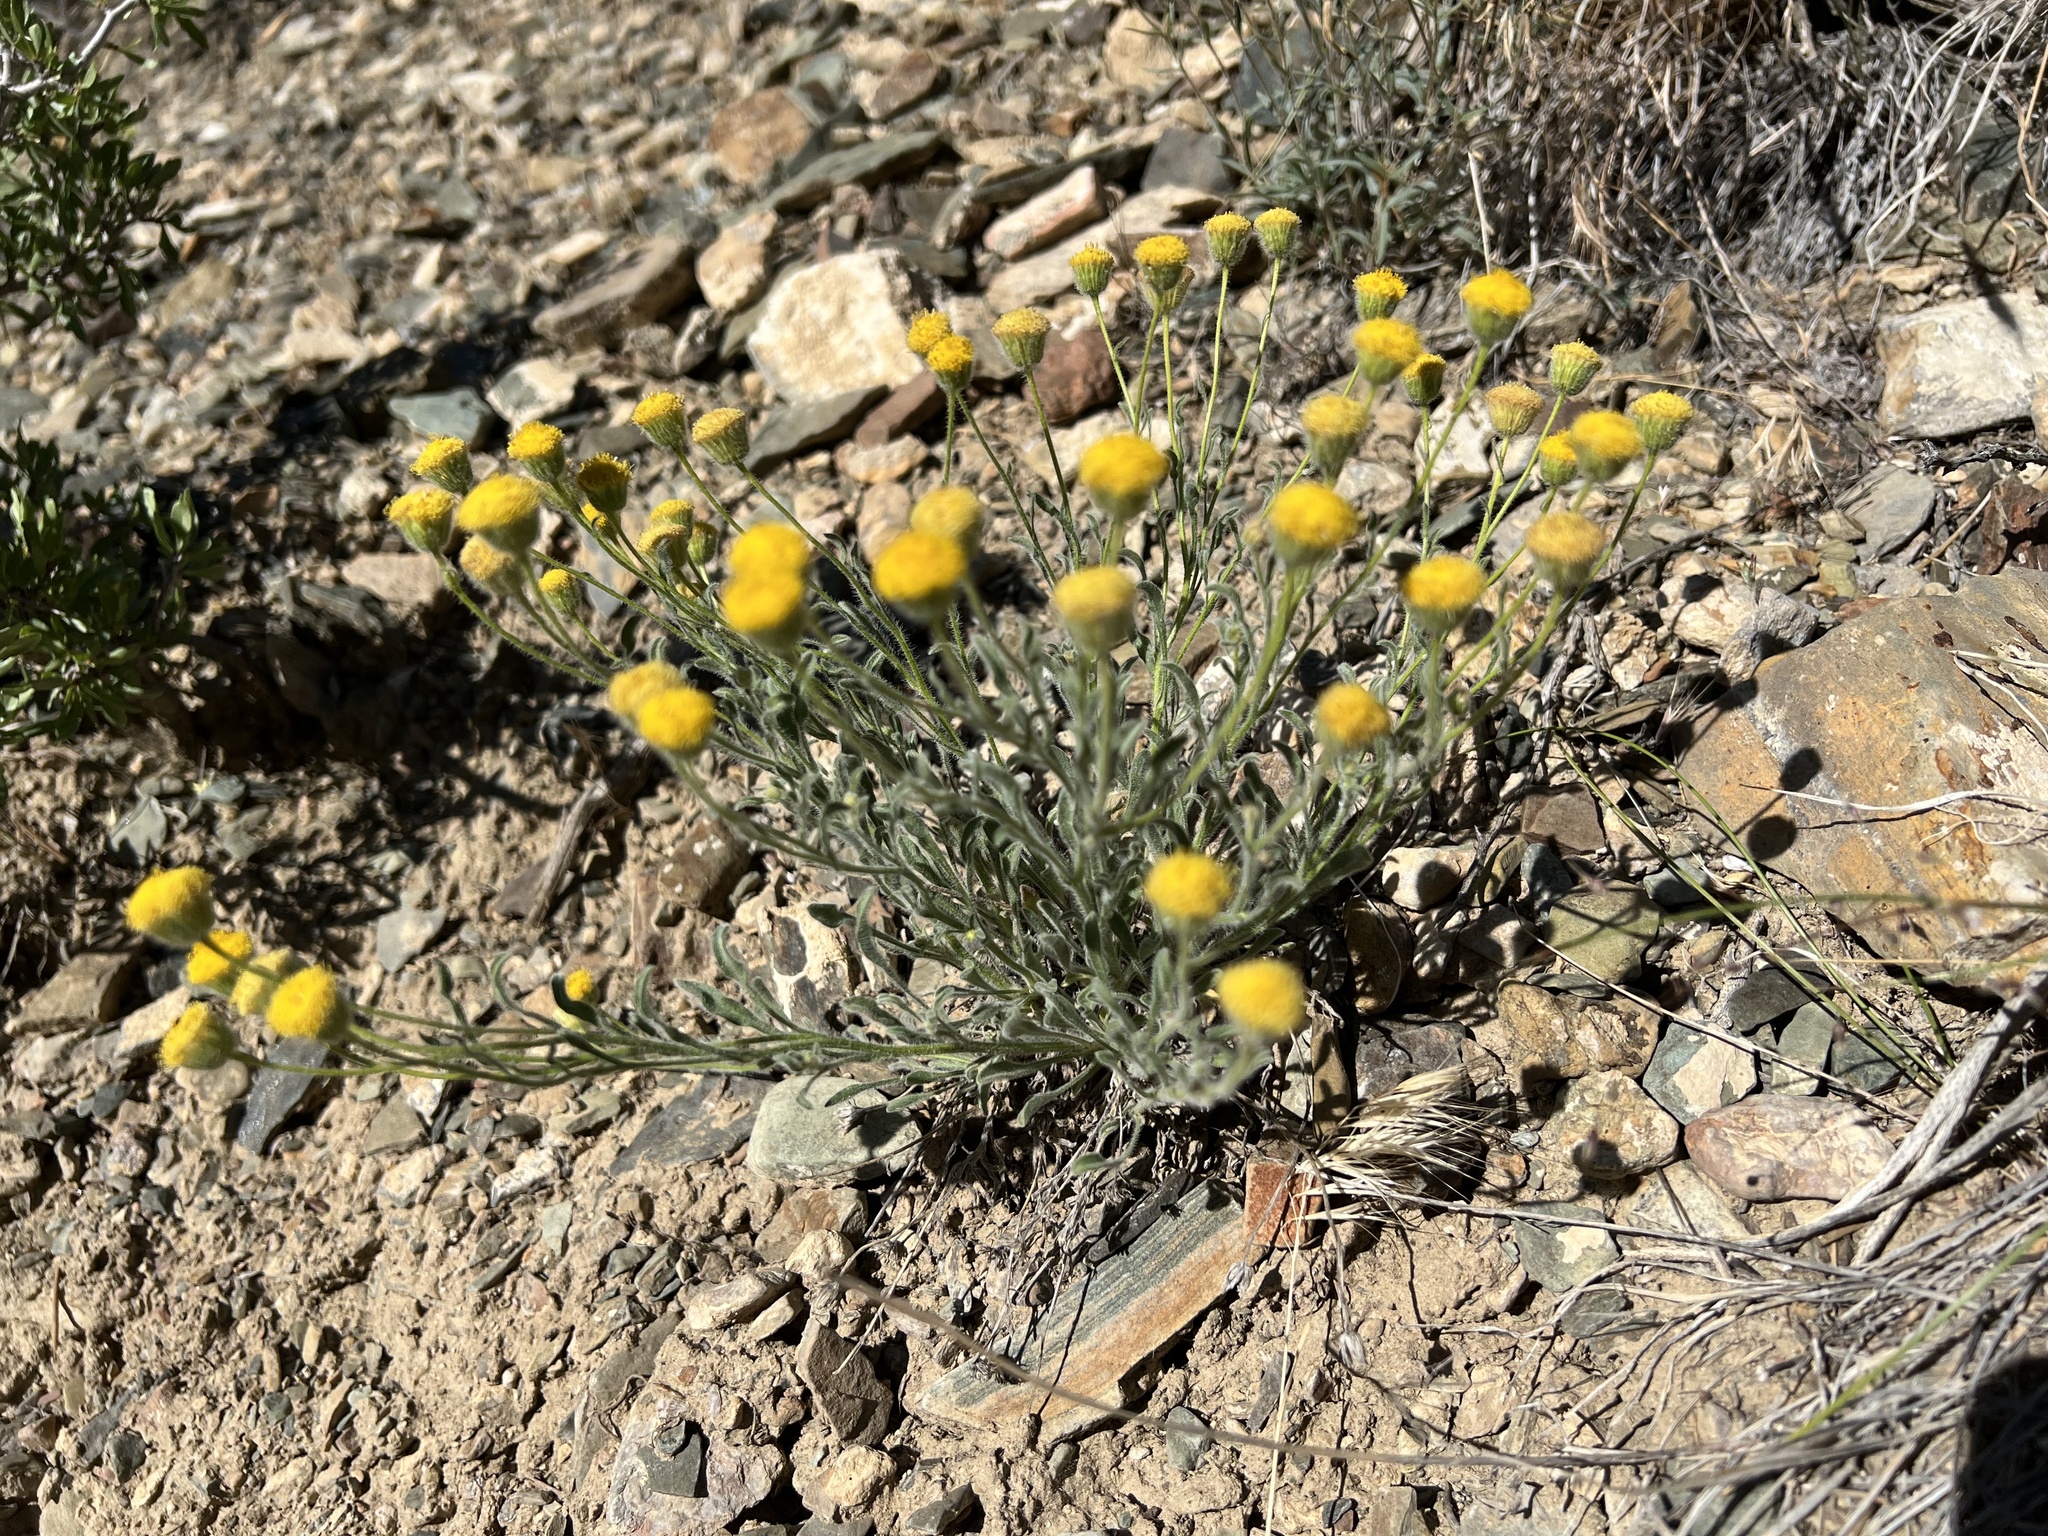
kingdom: Plantae
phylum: Tracheophyta
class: Magnoliopsida
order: Asterales
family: Asteraceae
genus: Erigeron
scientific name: Erigeron aphanactis
